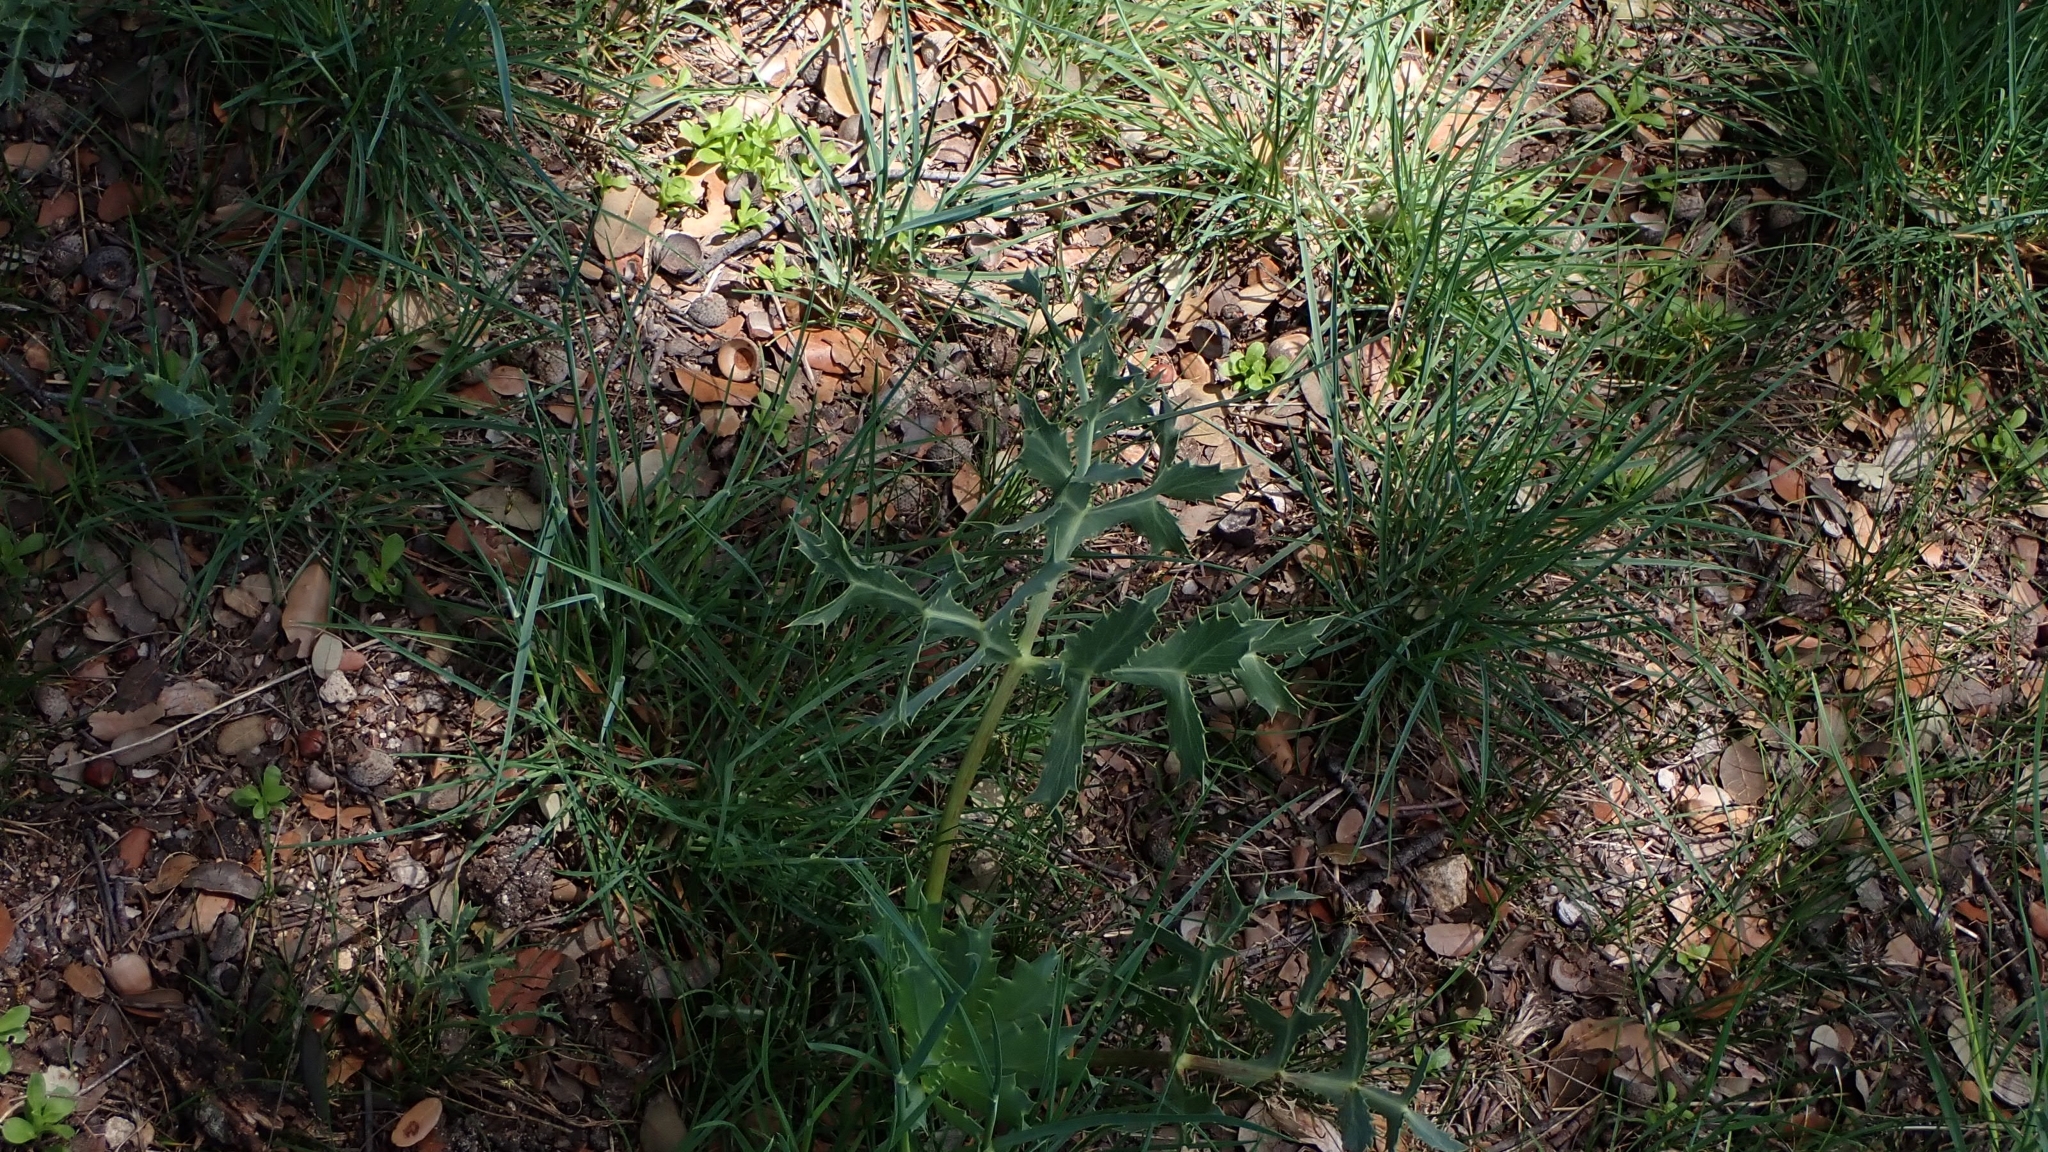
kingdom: Plantae
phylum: Tracheophyta
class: Magnoliopsida
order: Apiales
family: Apiaceae
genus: Eryngium
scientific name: Eryngium campestre
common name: Field eryngo
